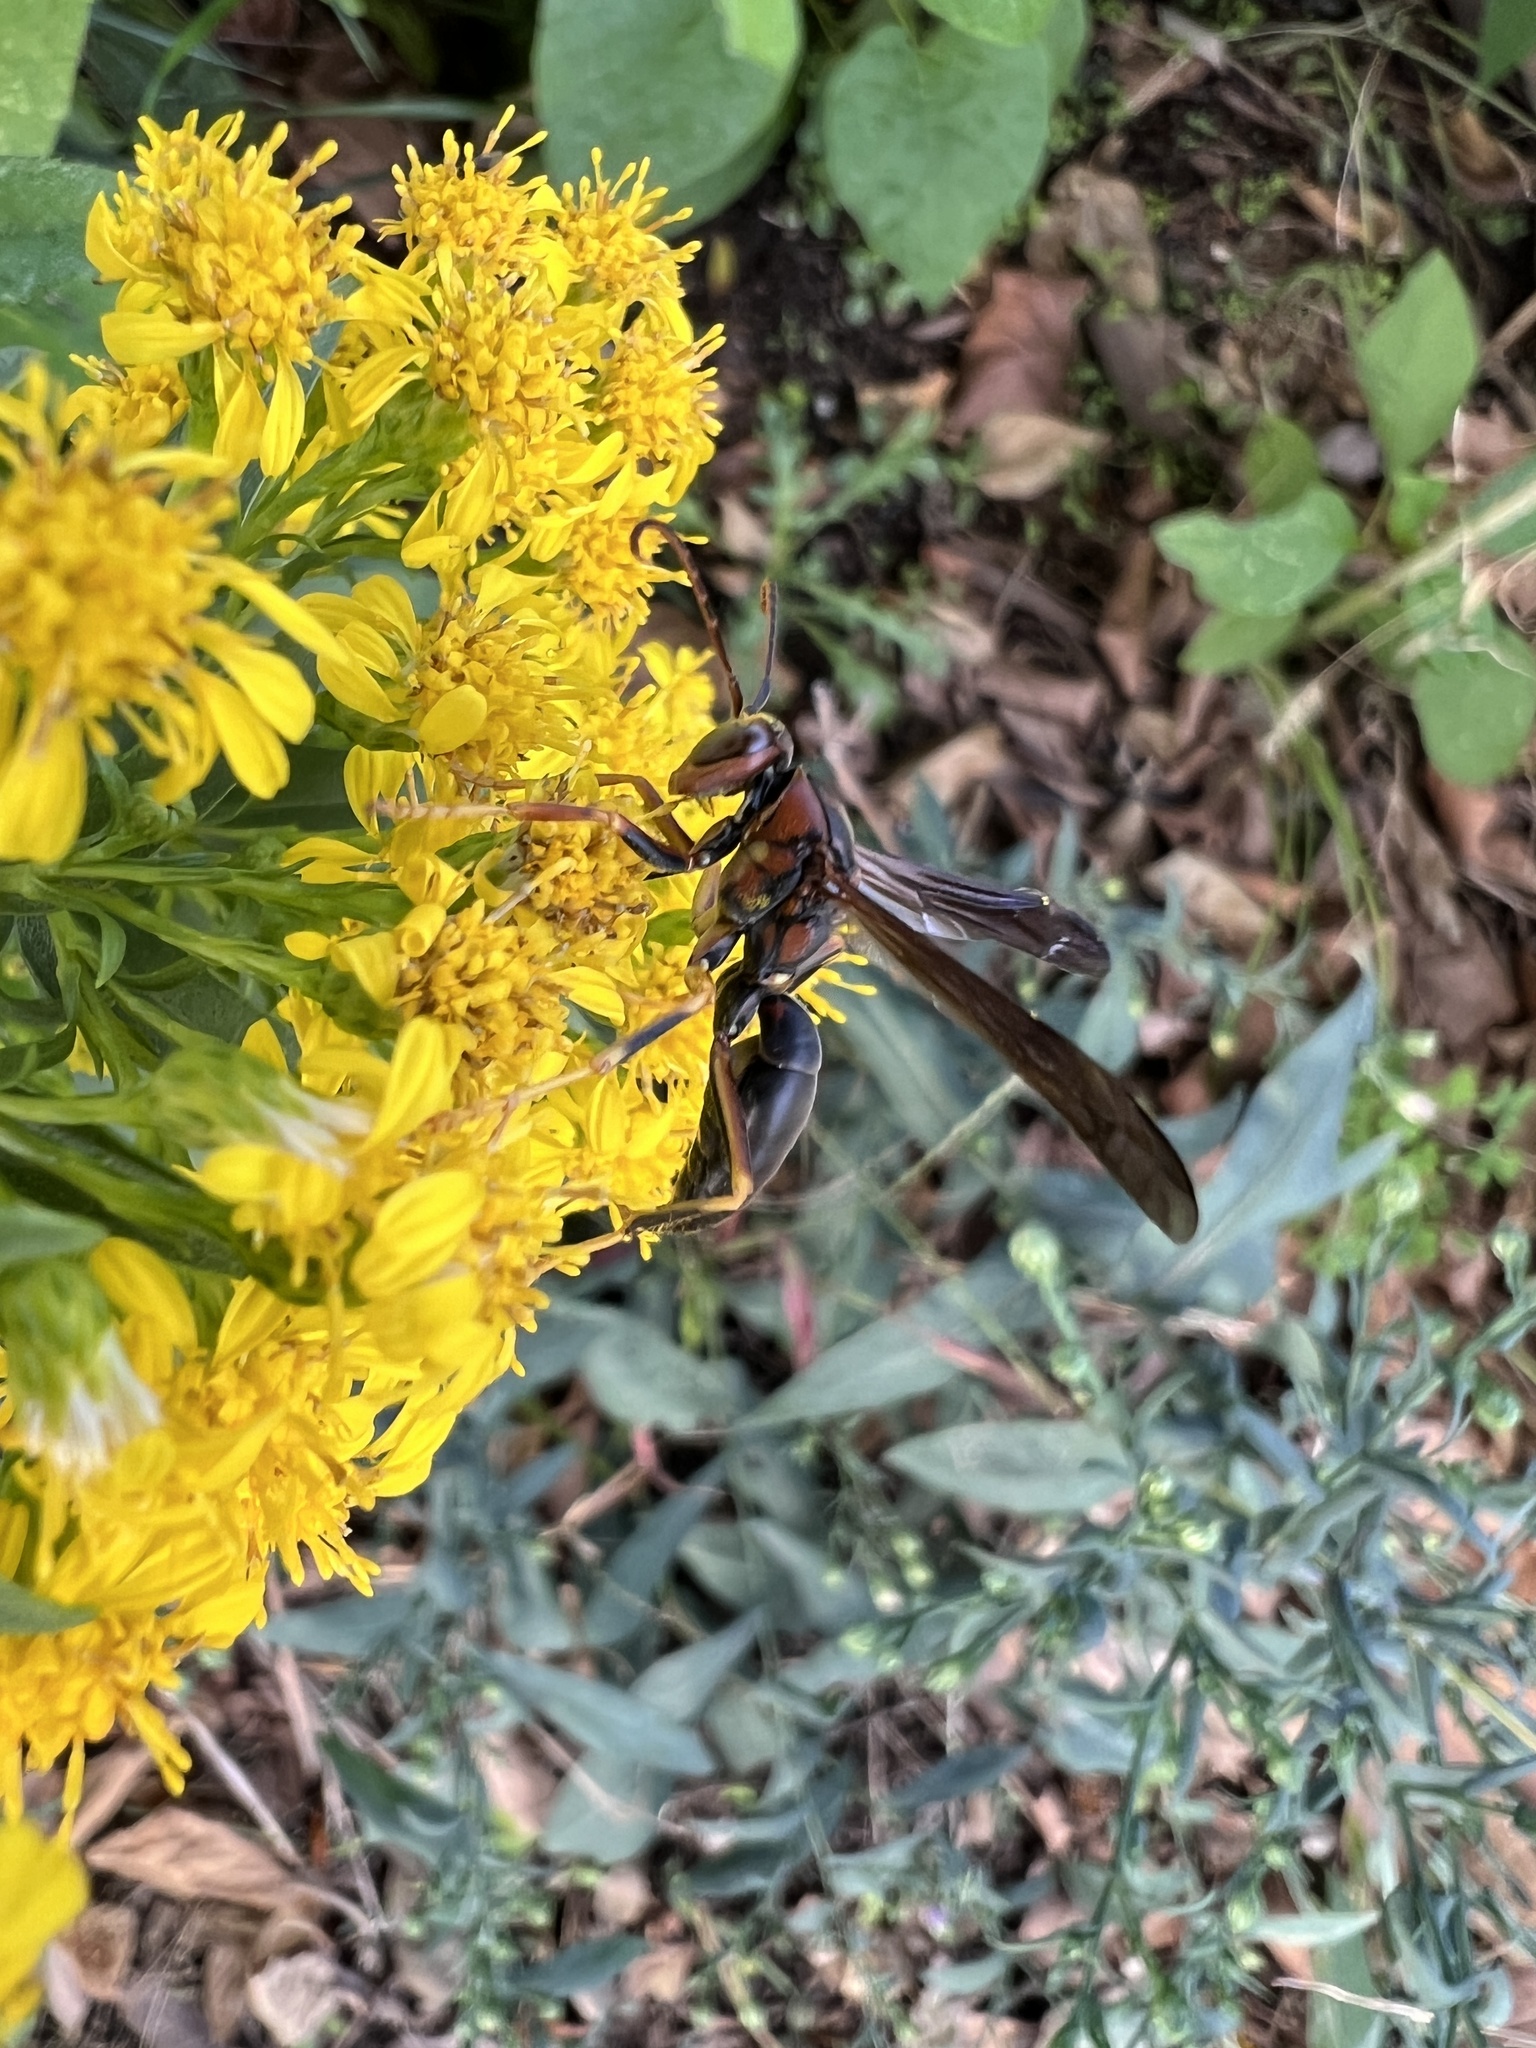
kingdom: Animalia
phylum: Arthropoda
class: Insecta
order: Hymenoptera
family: Eumenidae
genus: Polistes
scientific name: Polistes metricus
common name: Metric paper wasp
